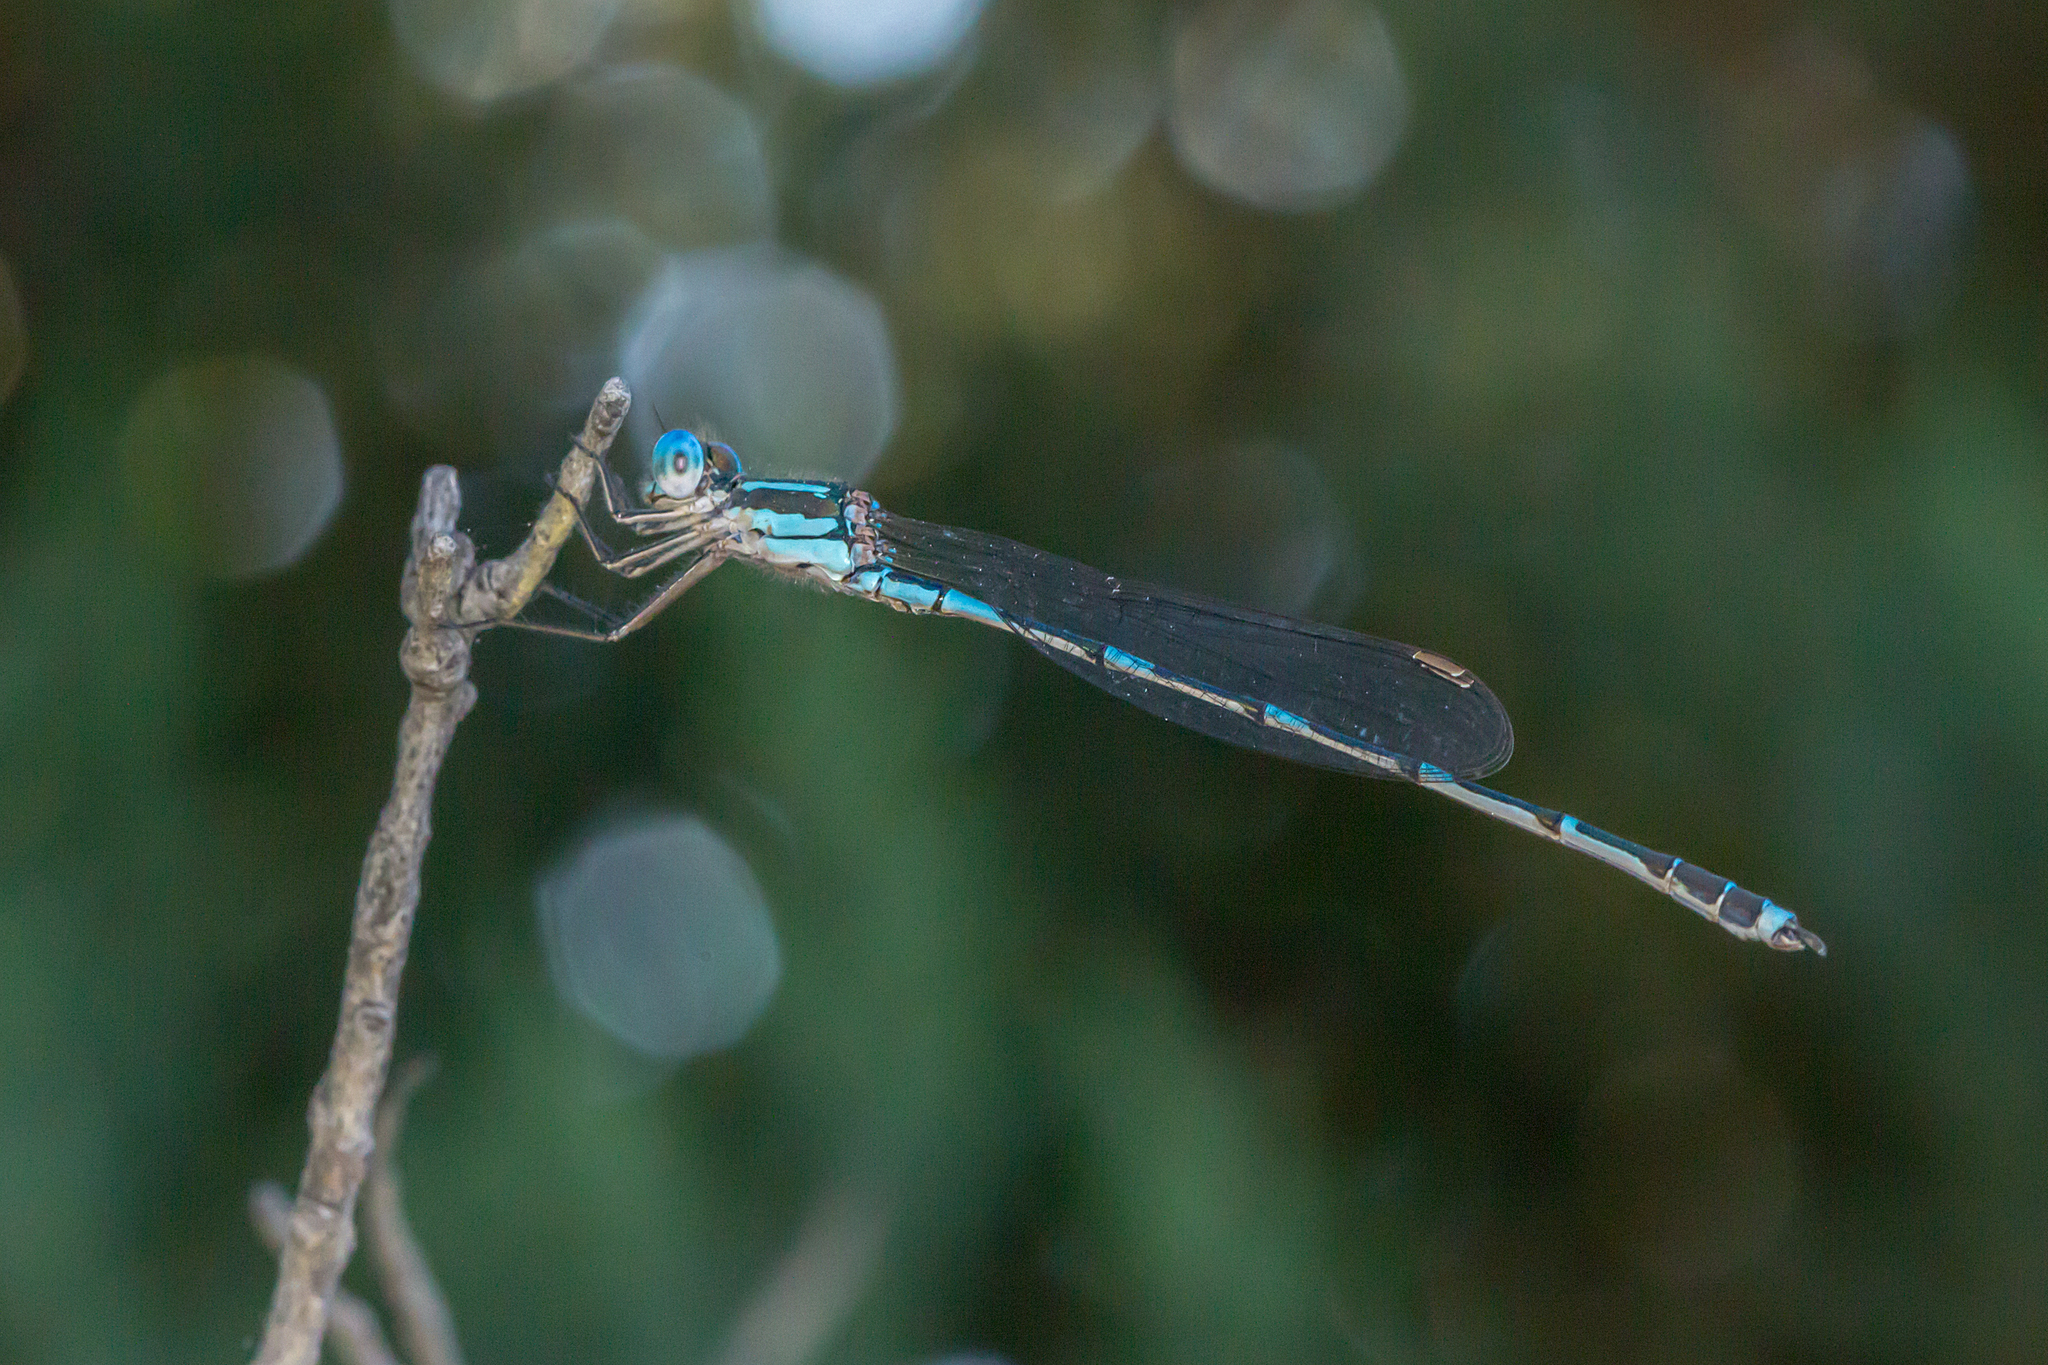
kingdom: Animalia
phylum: Arthropoda
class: Insecta
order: Odonata
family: Lestidae
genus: Austrolestes
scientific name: Austrolestes leda
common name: Wandering ringtail
